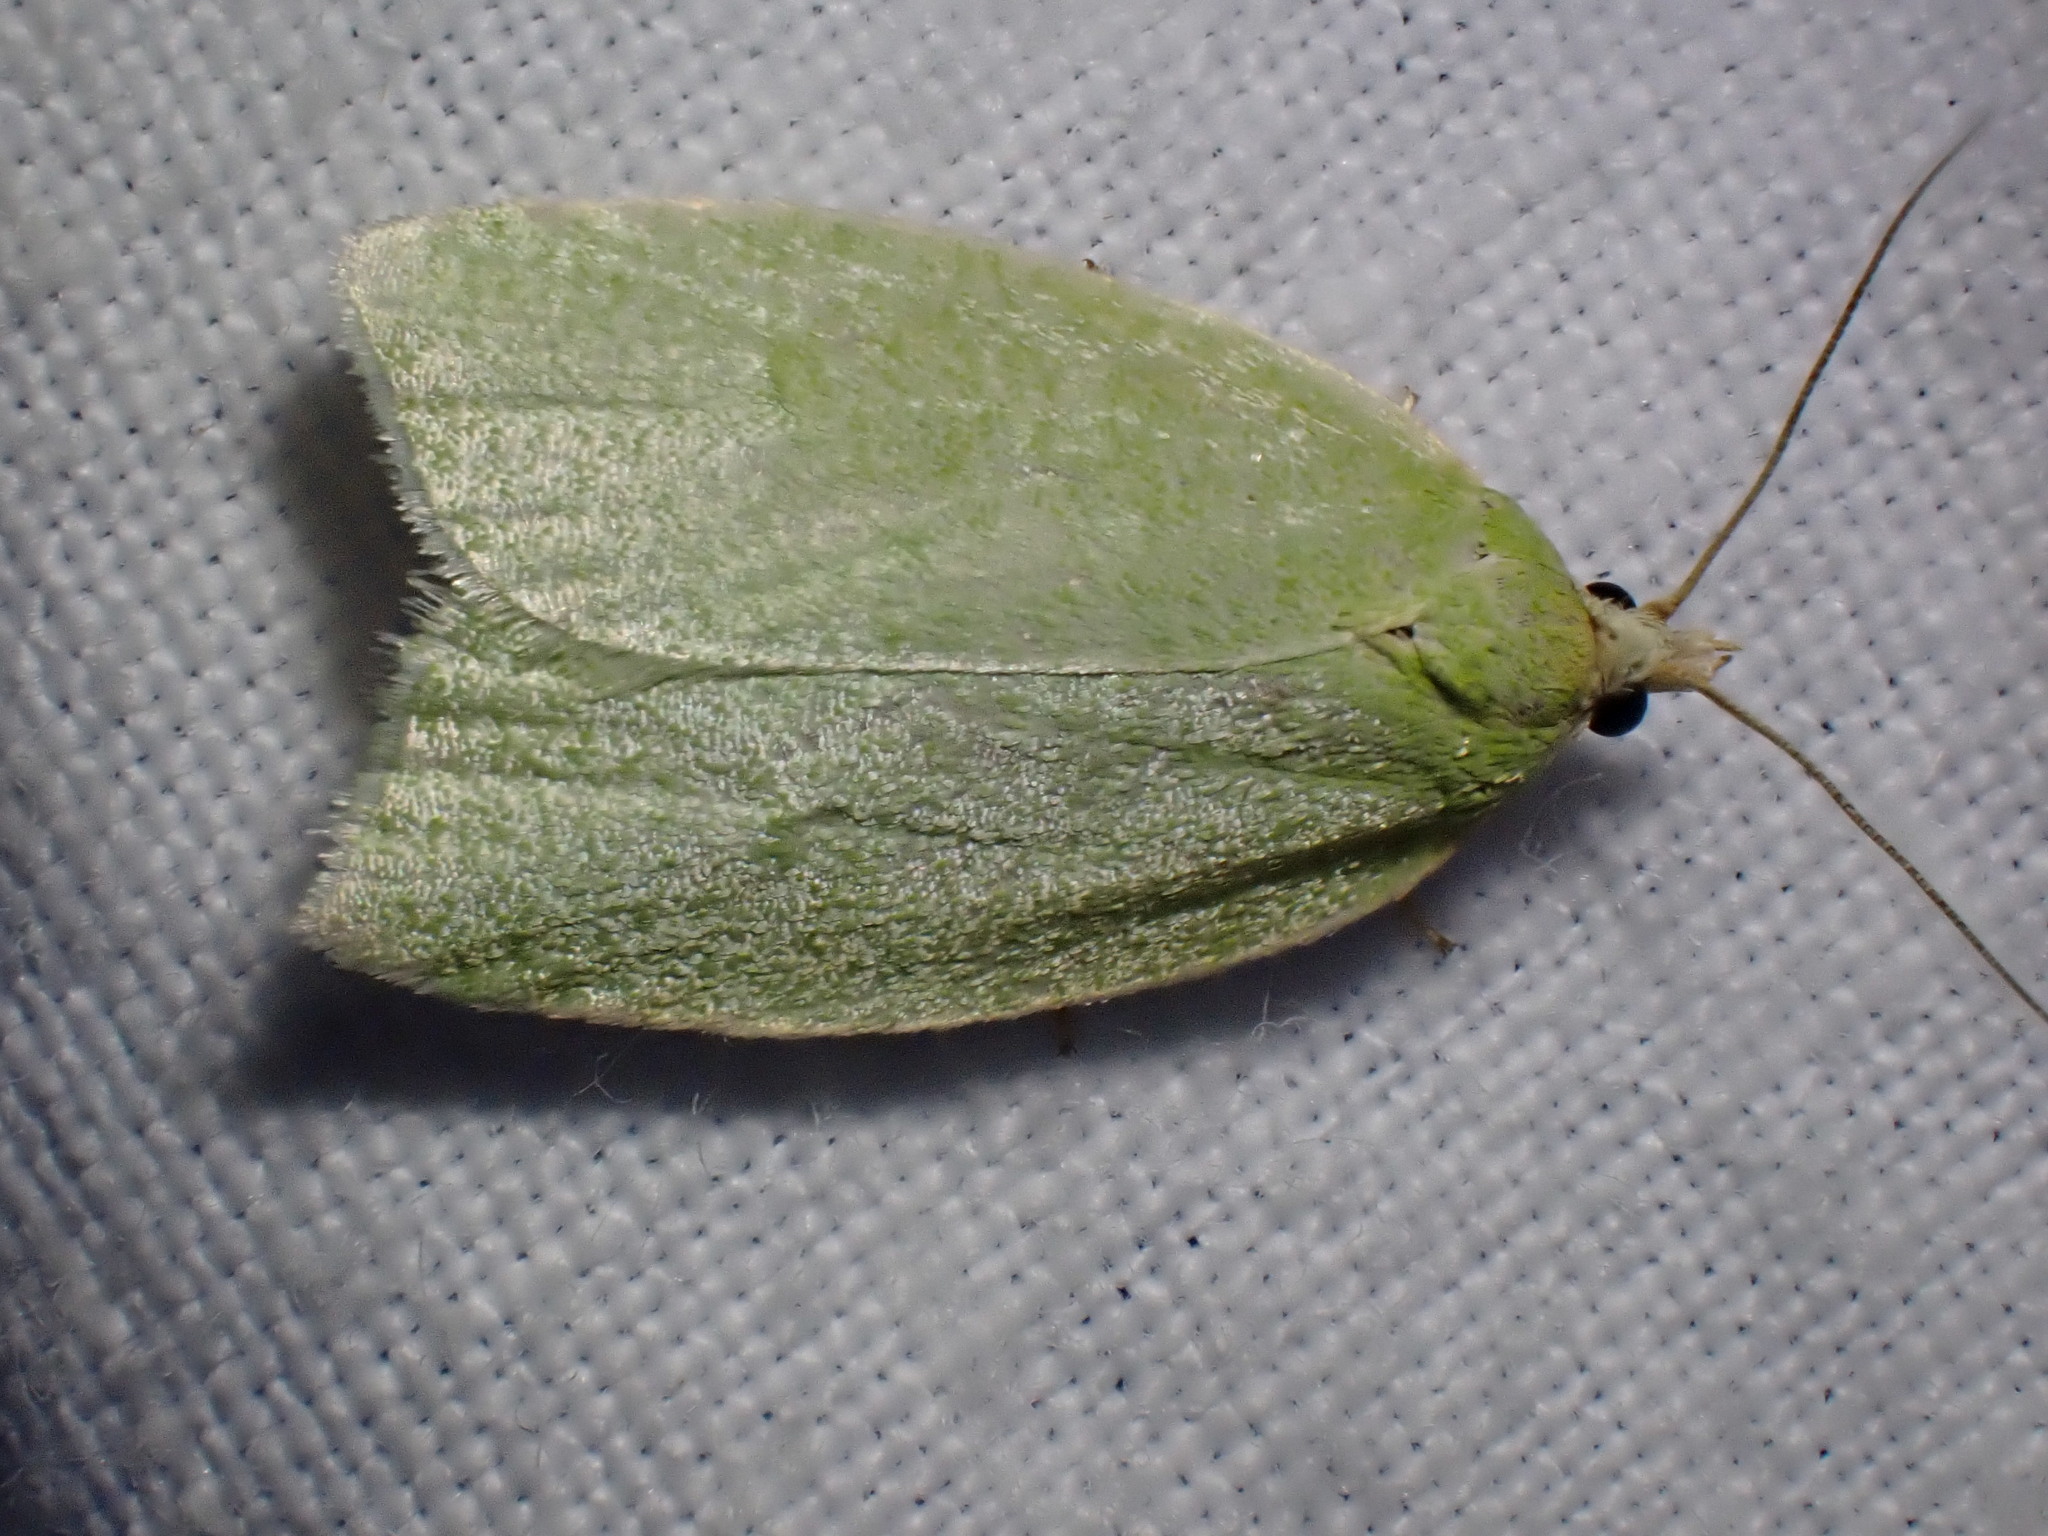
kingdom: Animalia
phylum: Arthropoda
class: Insecta
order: Lepidoptera
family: Tortricidae
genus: Tortrix
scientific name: Tortrix viridana
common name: Green oak tortrix
